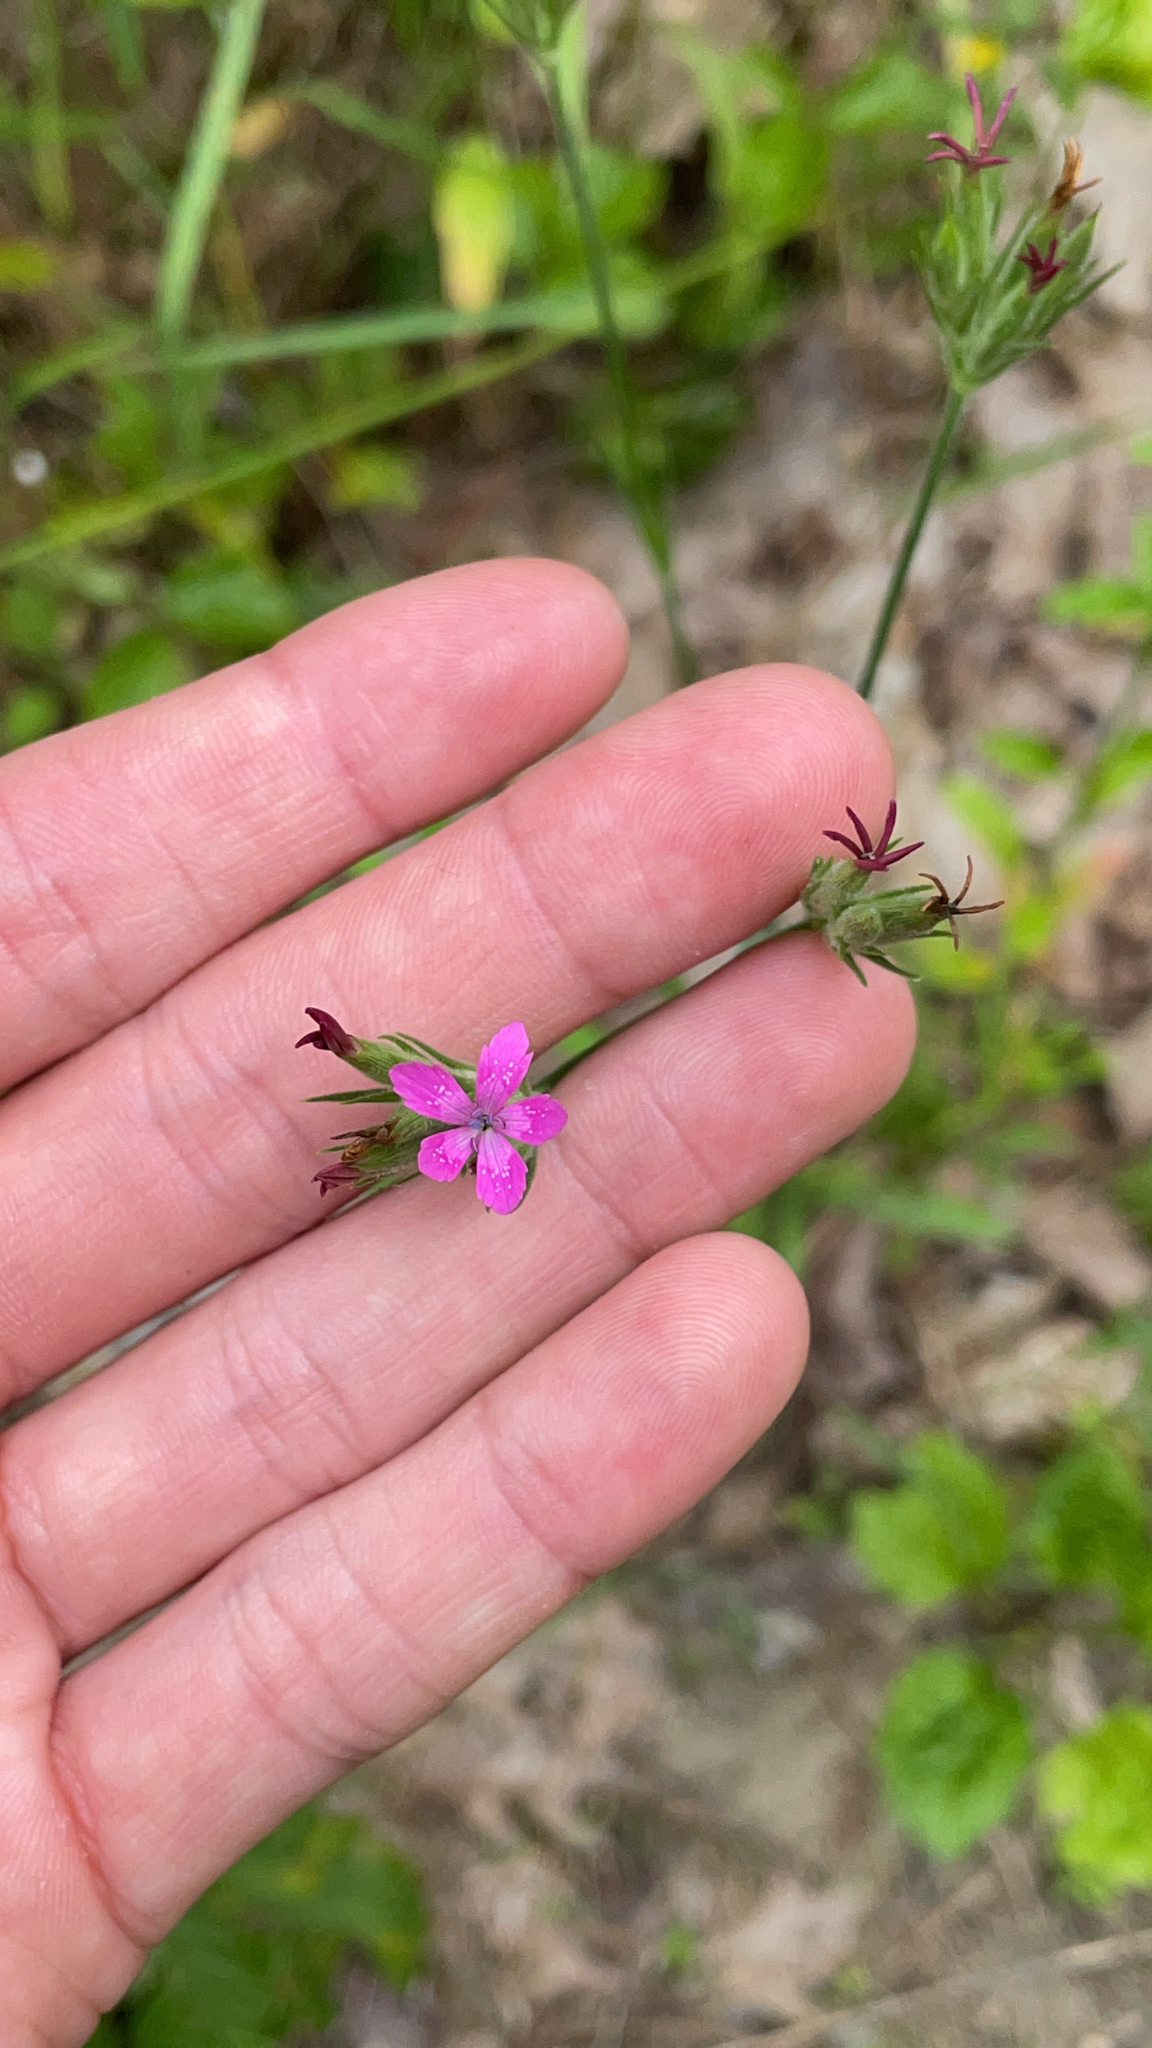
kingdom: Plantae
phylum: Tracheophyta
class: Magnoliopsida
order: Caryophyllales
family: Caryophyllaceae
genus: Dianthus
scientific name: Dianthus armeria
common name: Deptford pink
